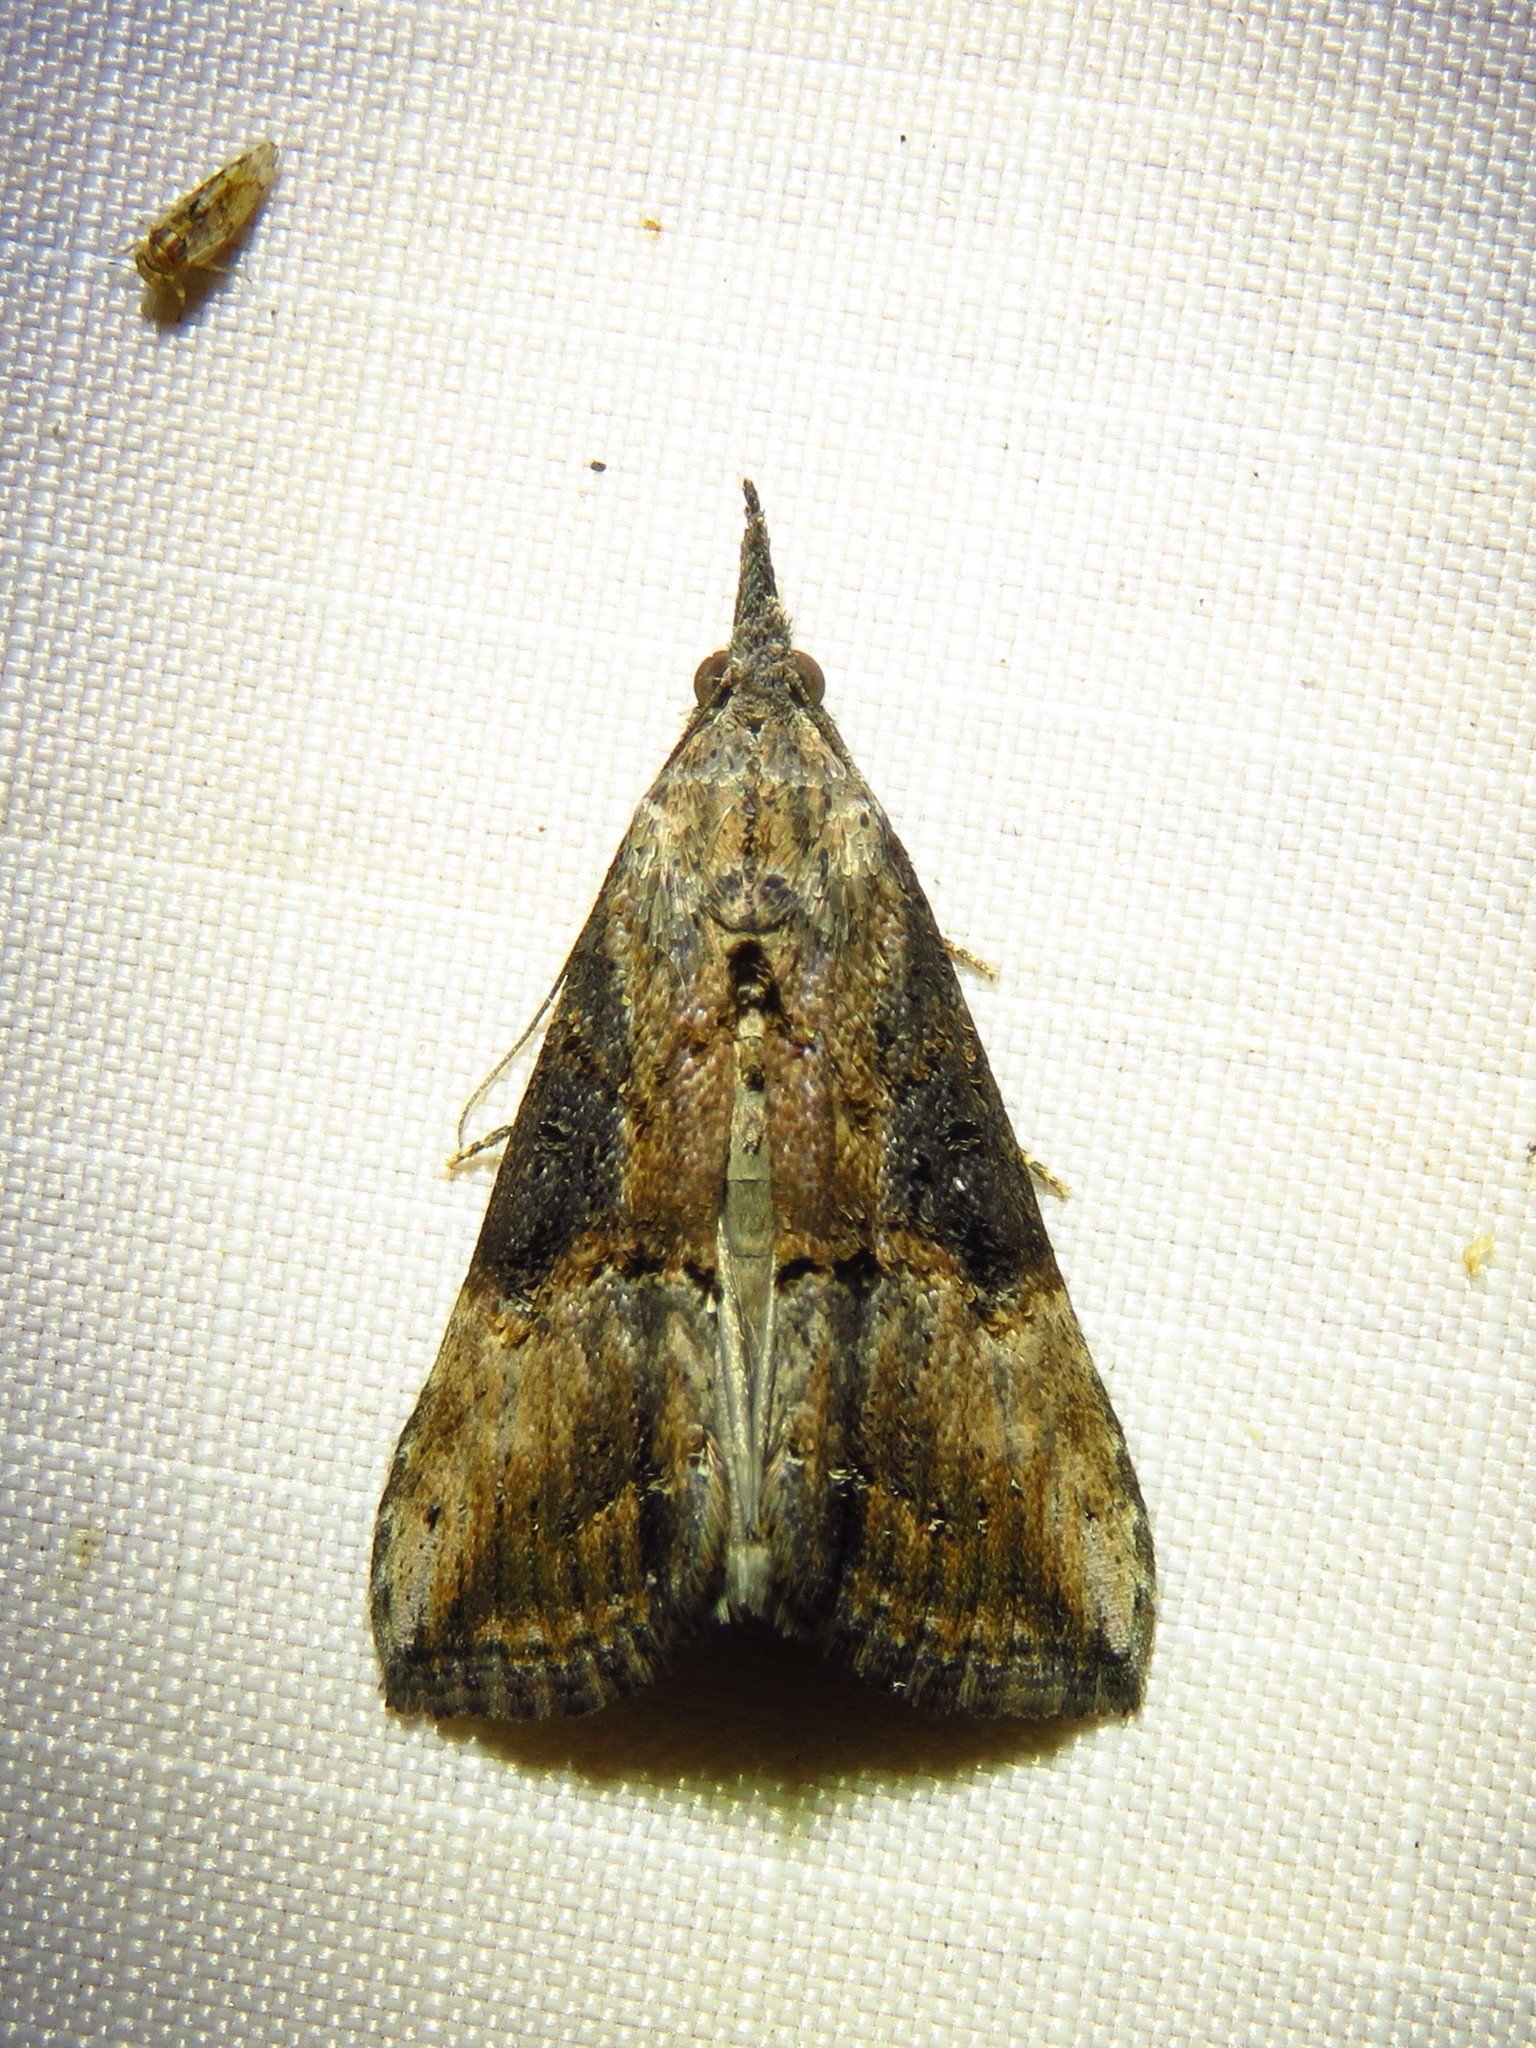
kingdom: Animalia
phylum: Arthropoda
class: Insecta
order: Lepidoptera
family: Erebidae
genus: Hypena
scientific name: Hypena scabra
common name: Green cloverworm
